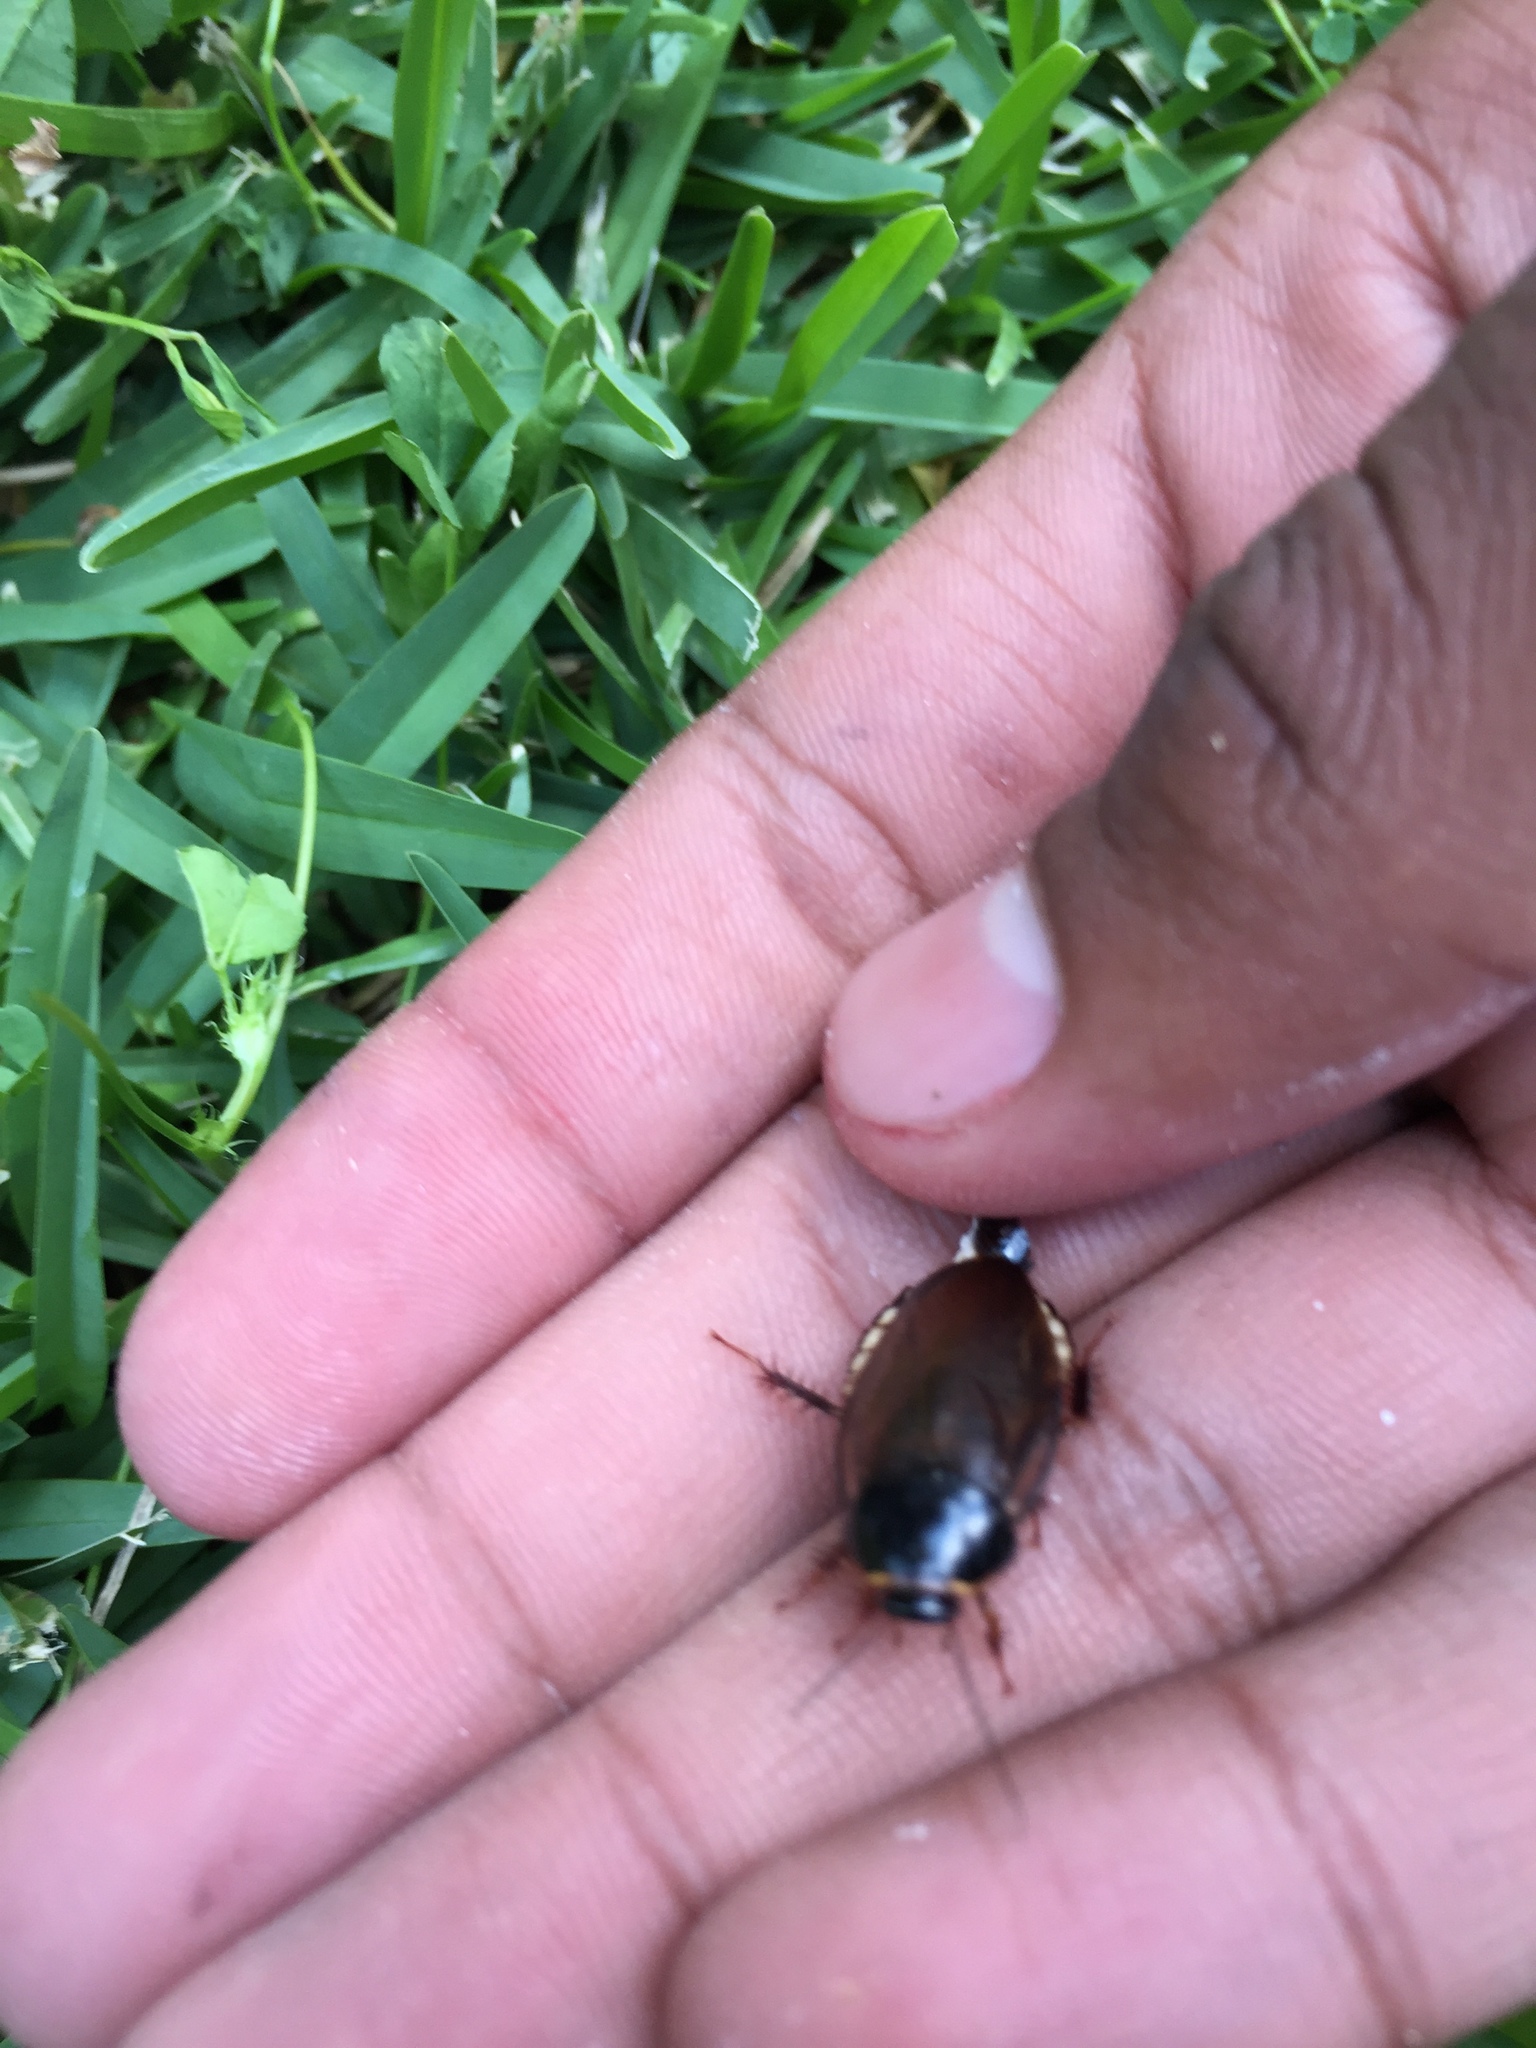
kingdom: Animalia
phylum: Arthropoda
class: Insecta
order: Blattodea
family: Blaberidae
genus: Pycnoscelus
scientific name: Pycnoscelus surinamensis
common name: Surinam cockroach
